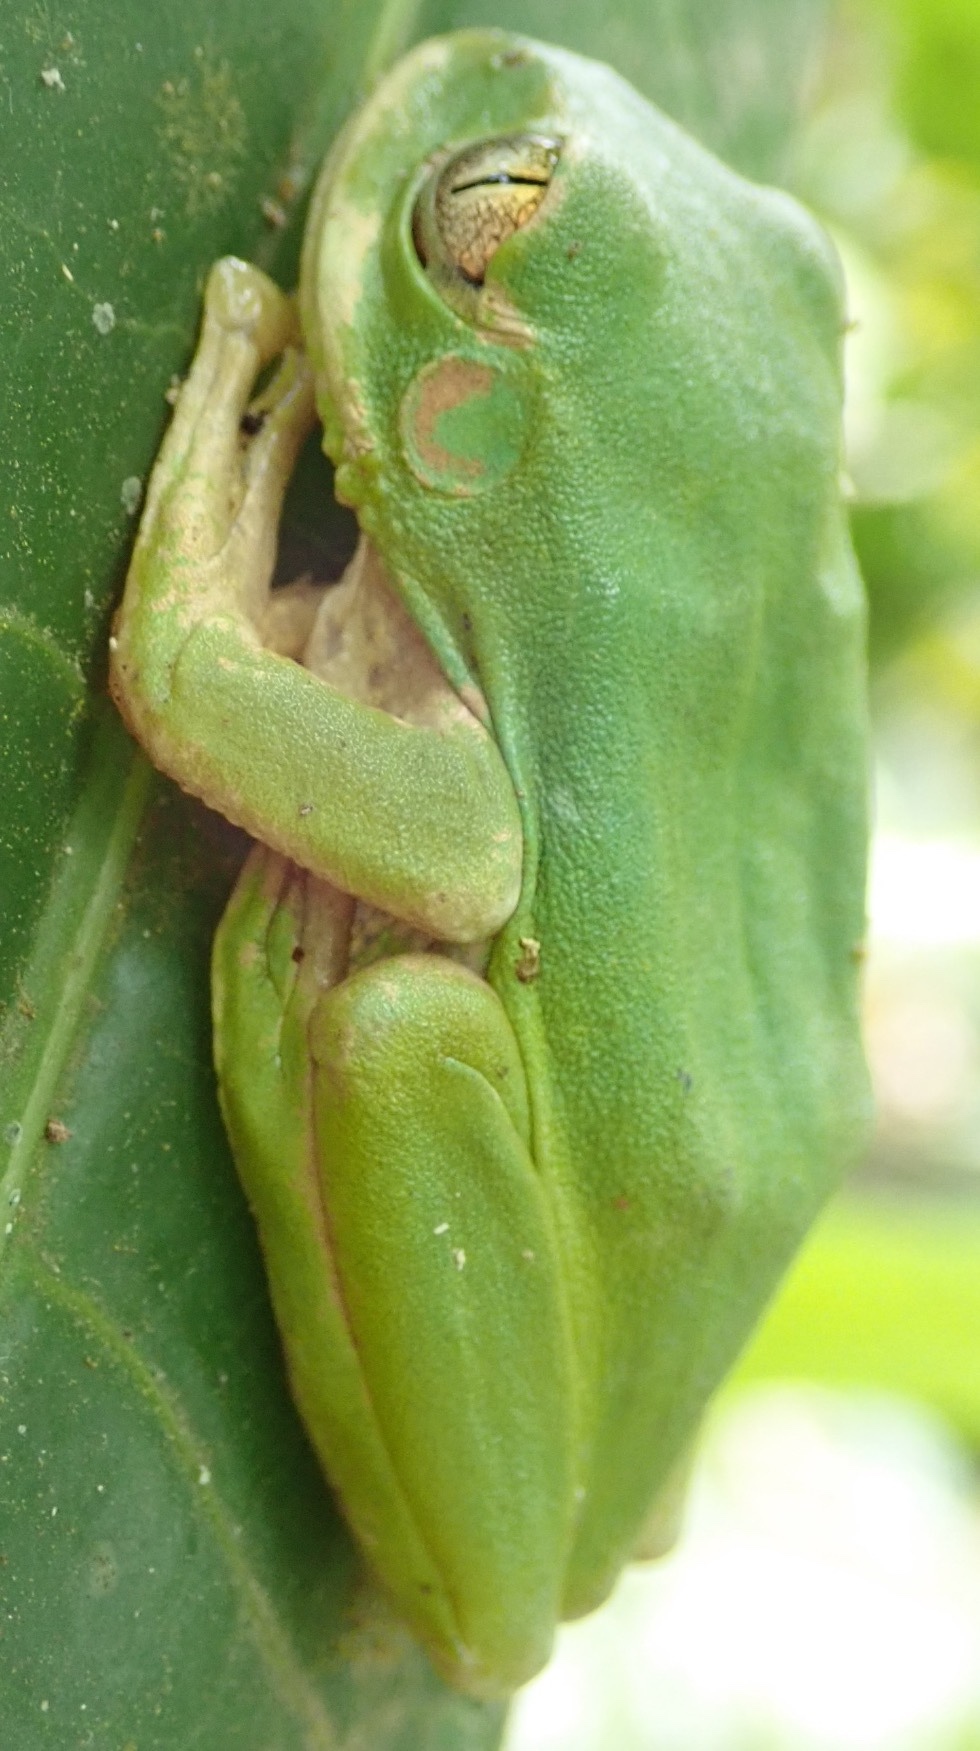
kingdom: Animalia
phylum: Chordata
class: Amphibia
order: Anura
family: Arthroleptidae
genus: Leptopelis
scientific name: Leptopelis natalensis
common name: Natal tree frog
